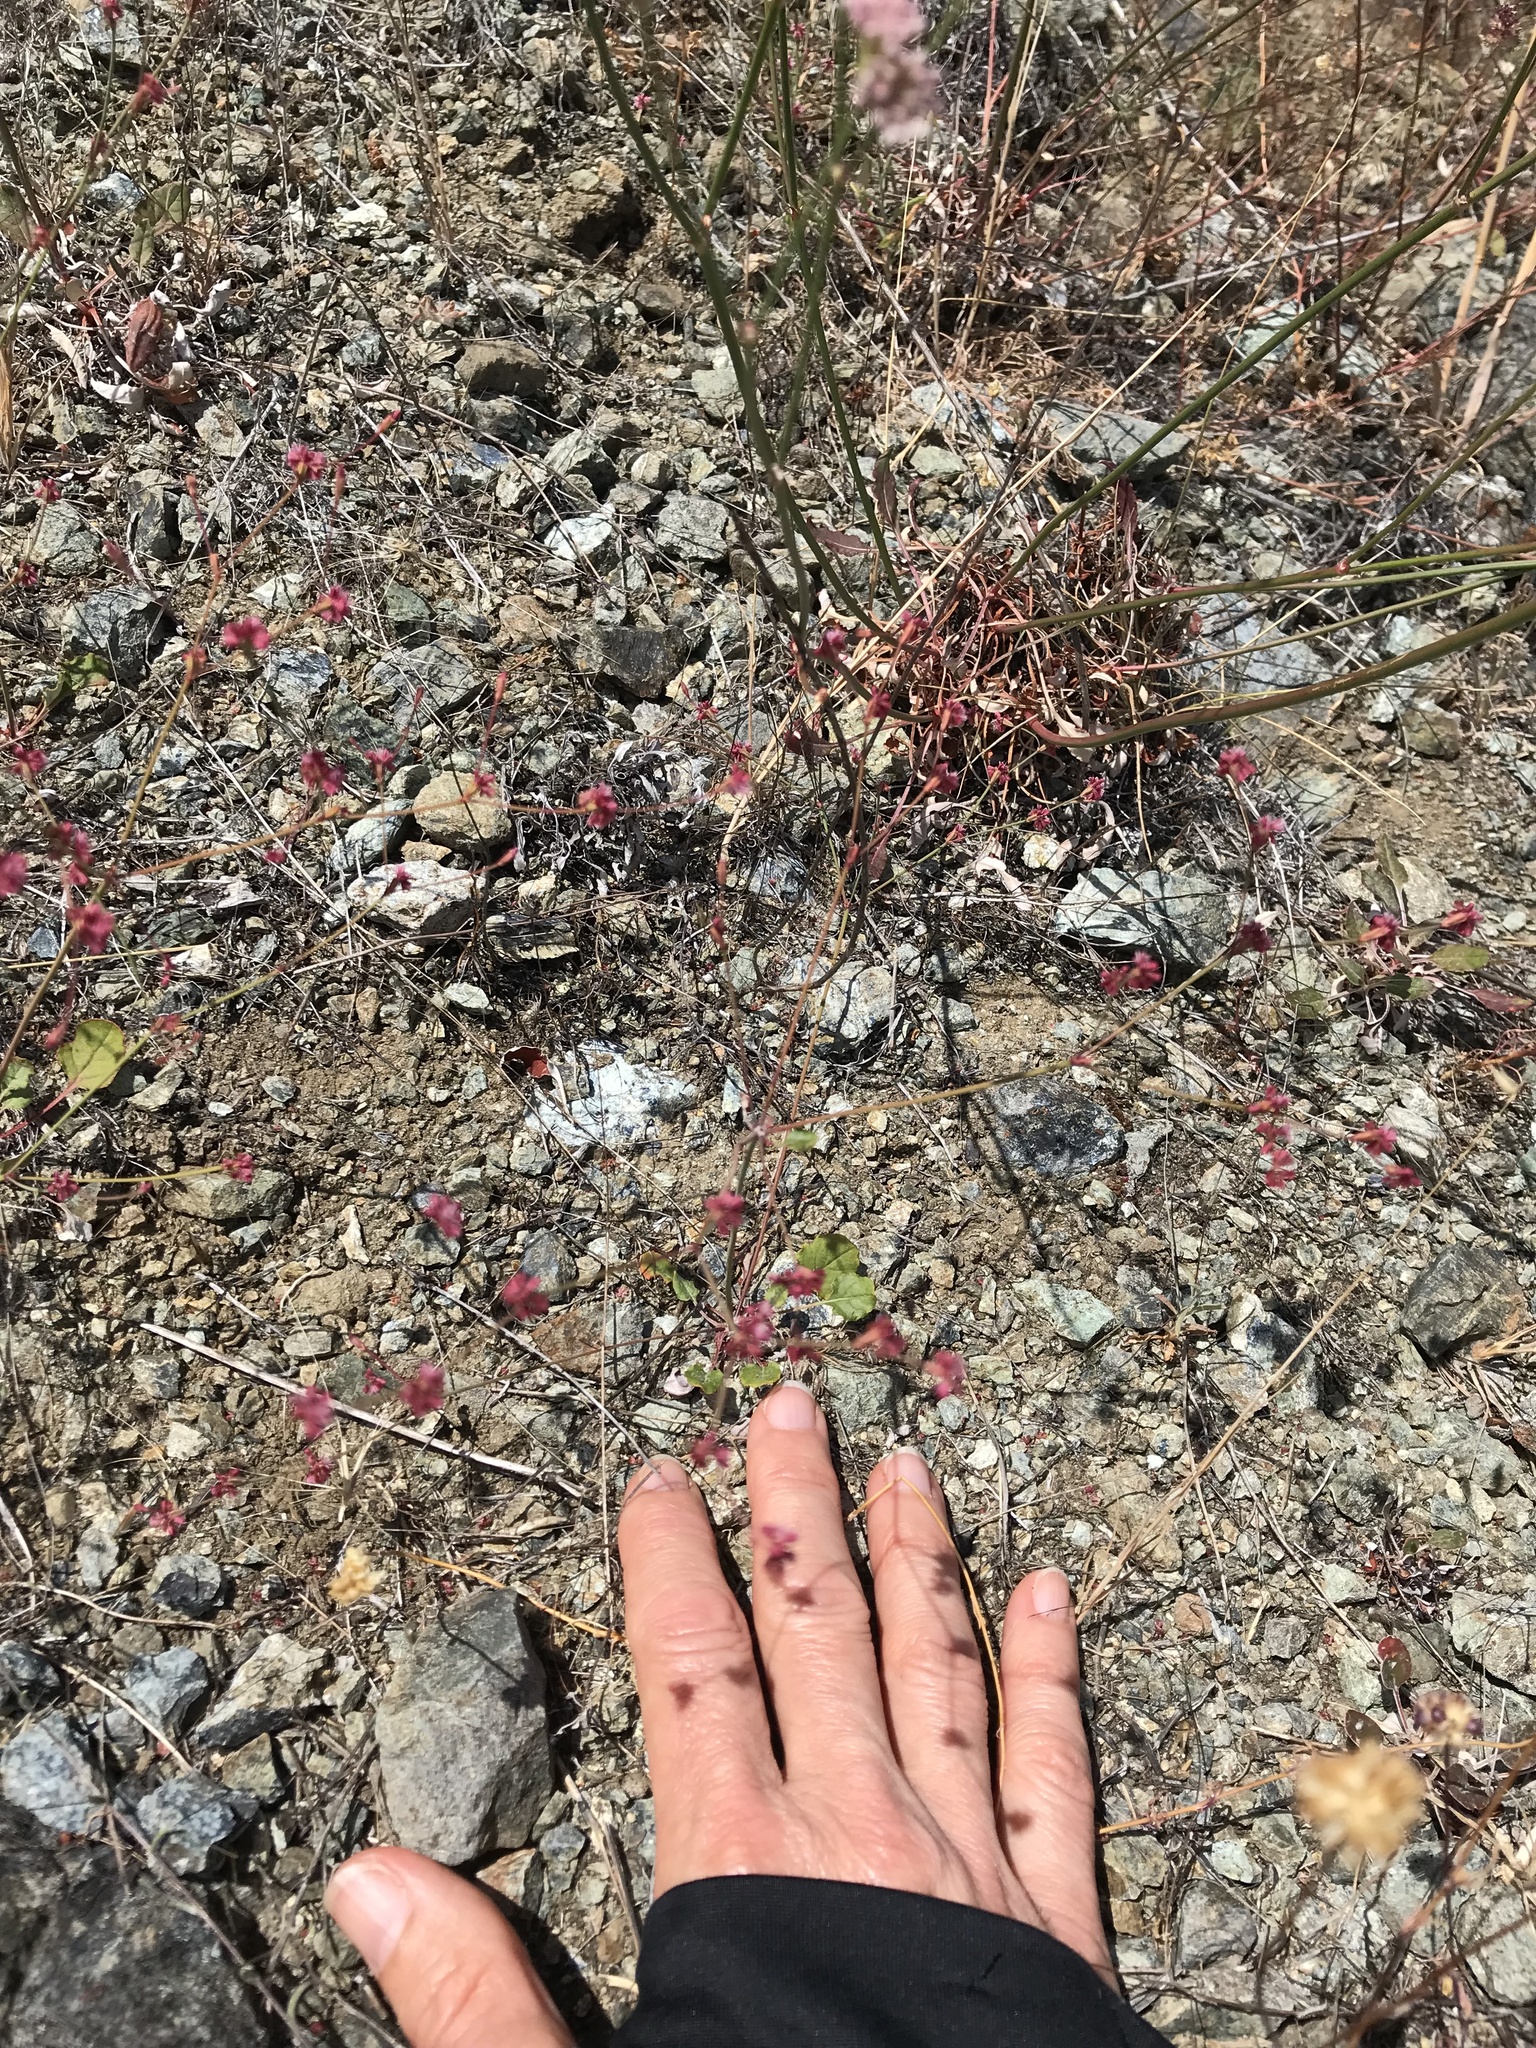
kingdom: Plantae
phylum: Tracheophyta
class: Magnoliopsida
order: Caryophyllales
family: Polygonaceae
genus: Eriogonum
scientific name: Eriogonum luteolum
